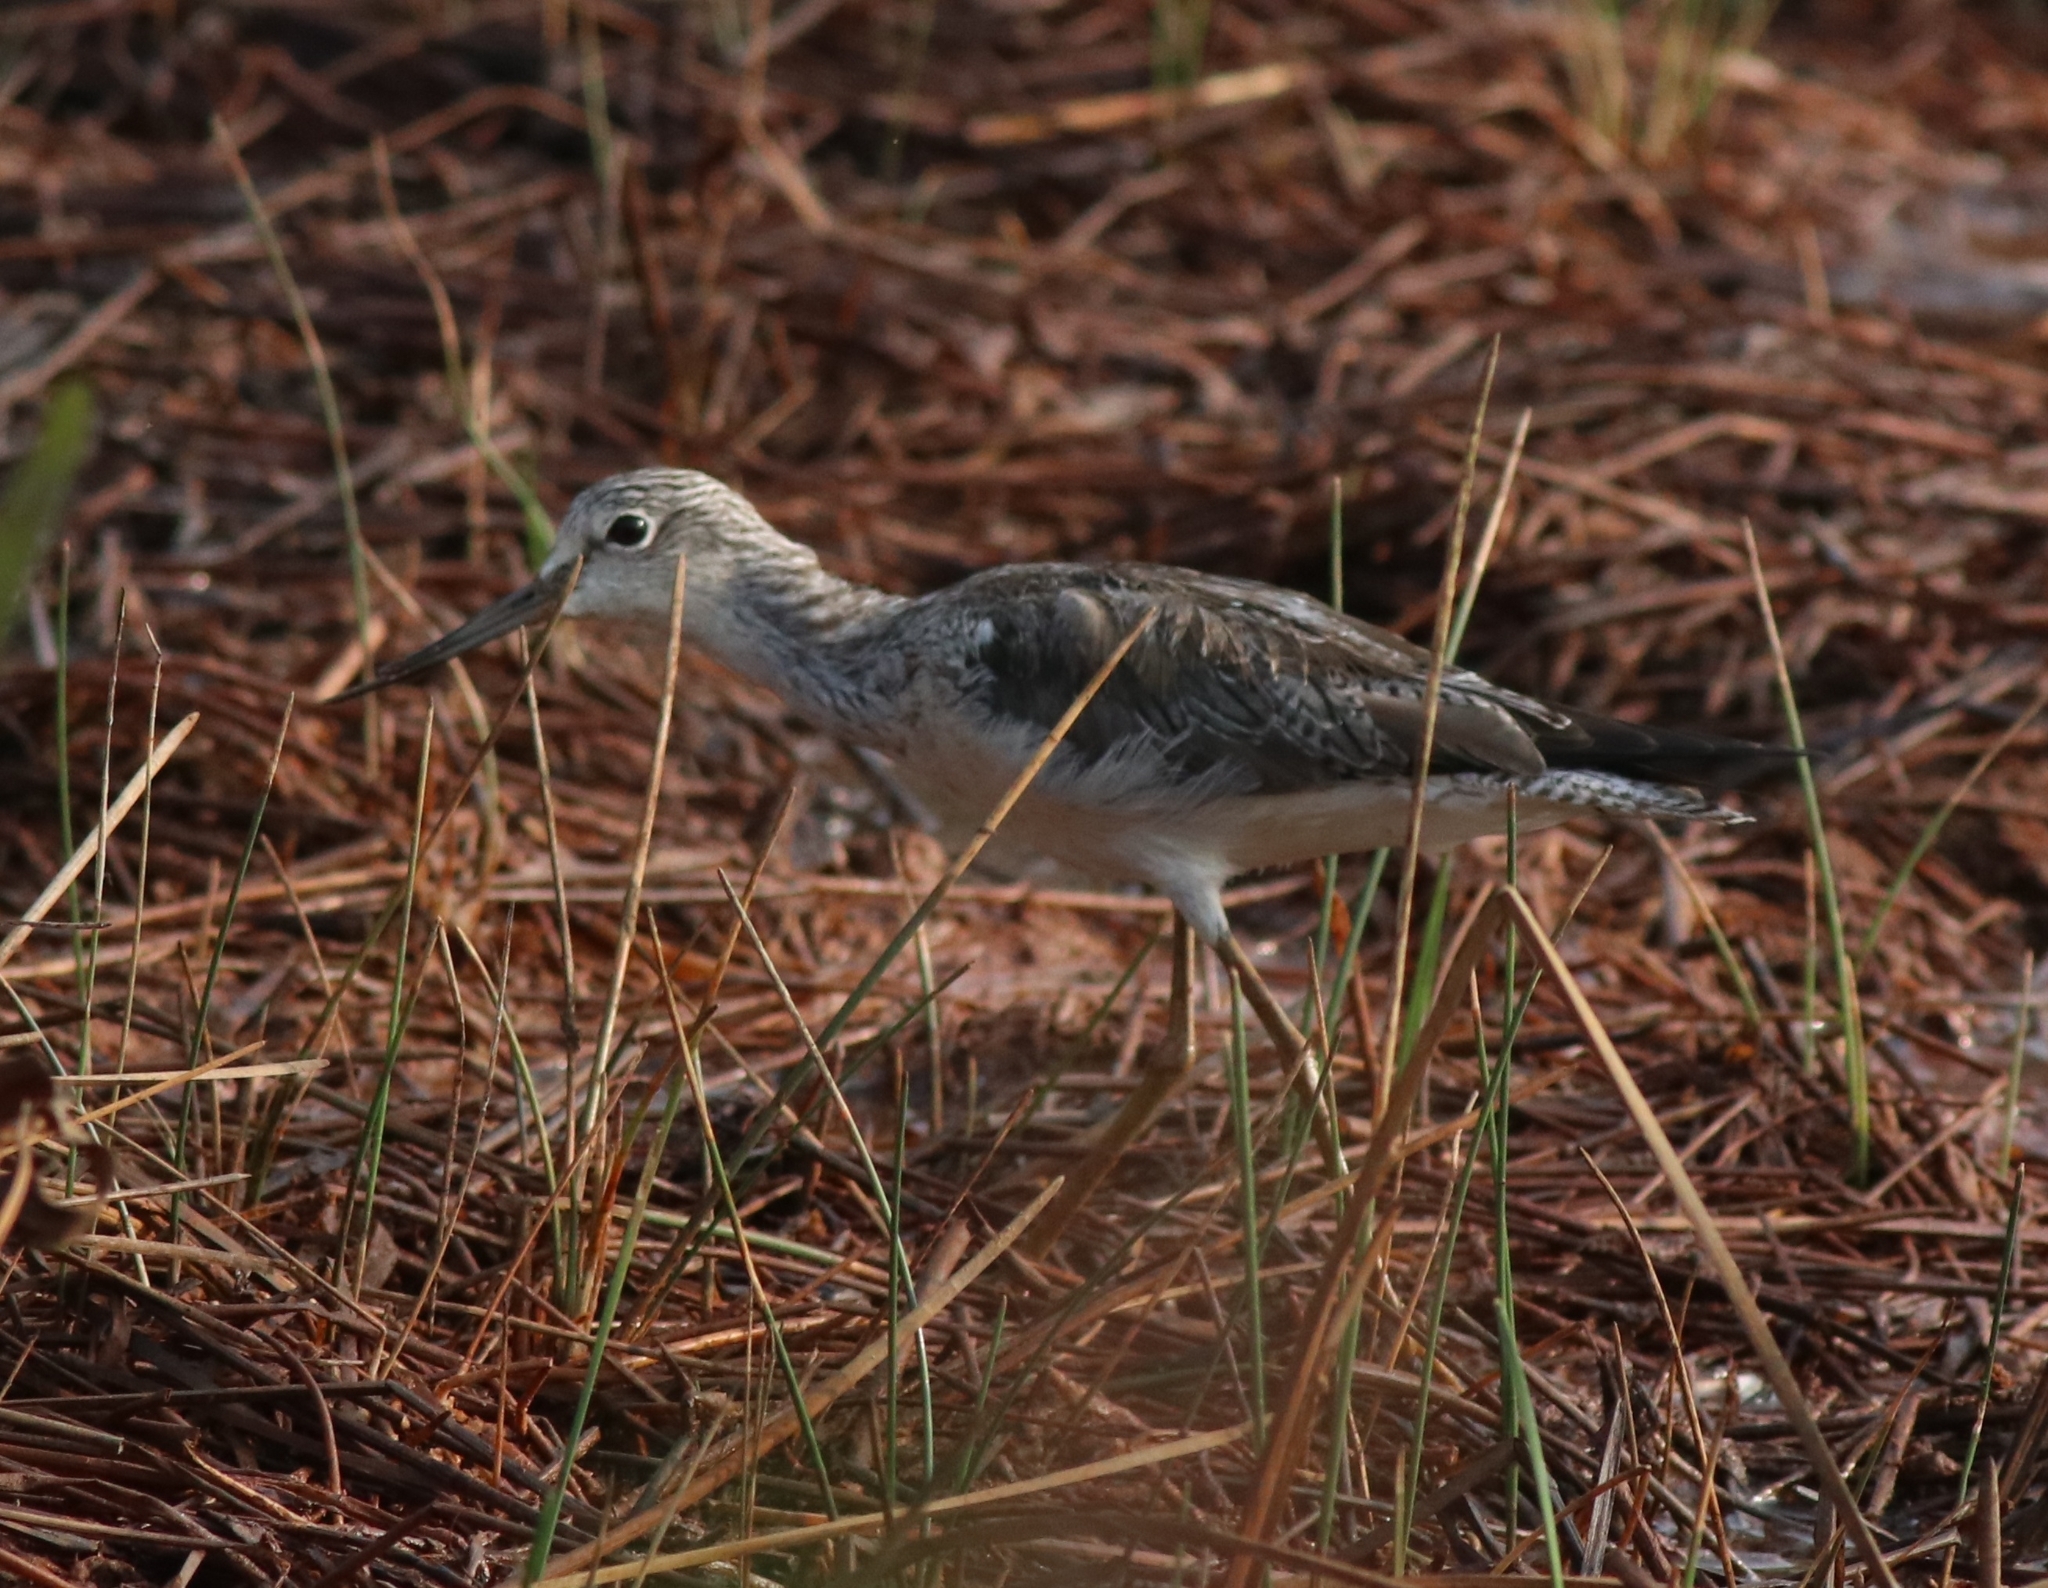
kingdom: Animalia
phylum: Chordata
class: Aves
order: Charadriiformes
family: Scolopacidae
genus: Tringa
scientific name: Tringa nebularia
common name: Common greenshank
